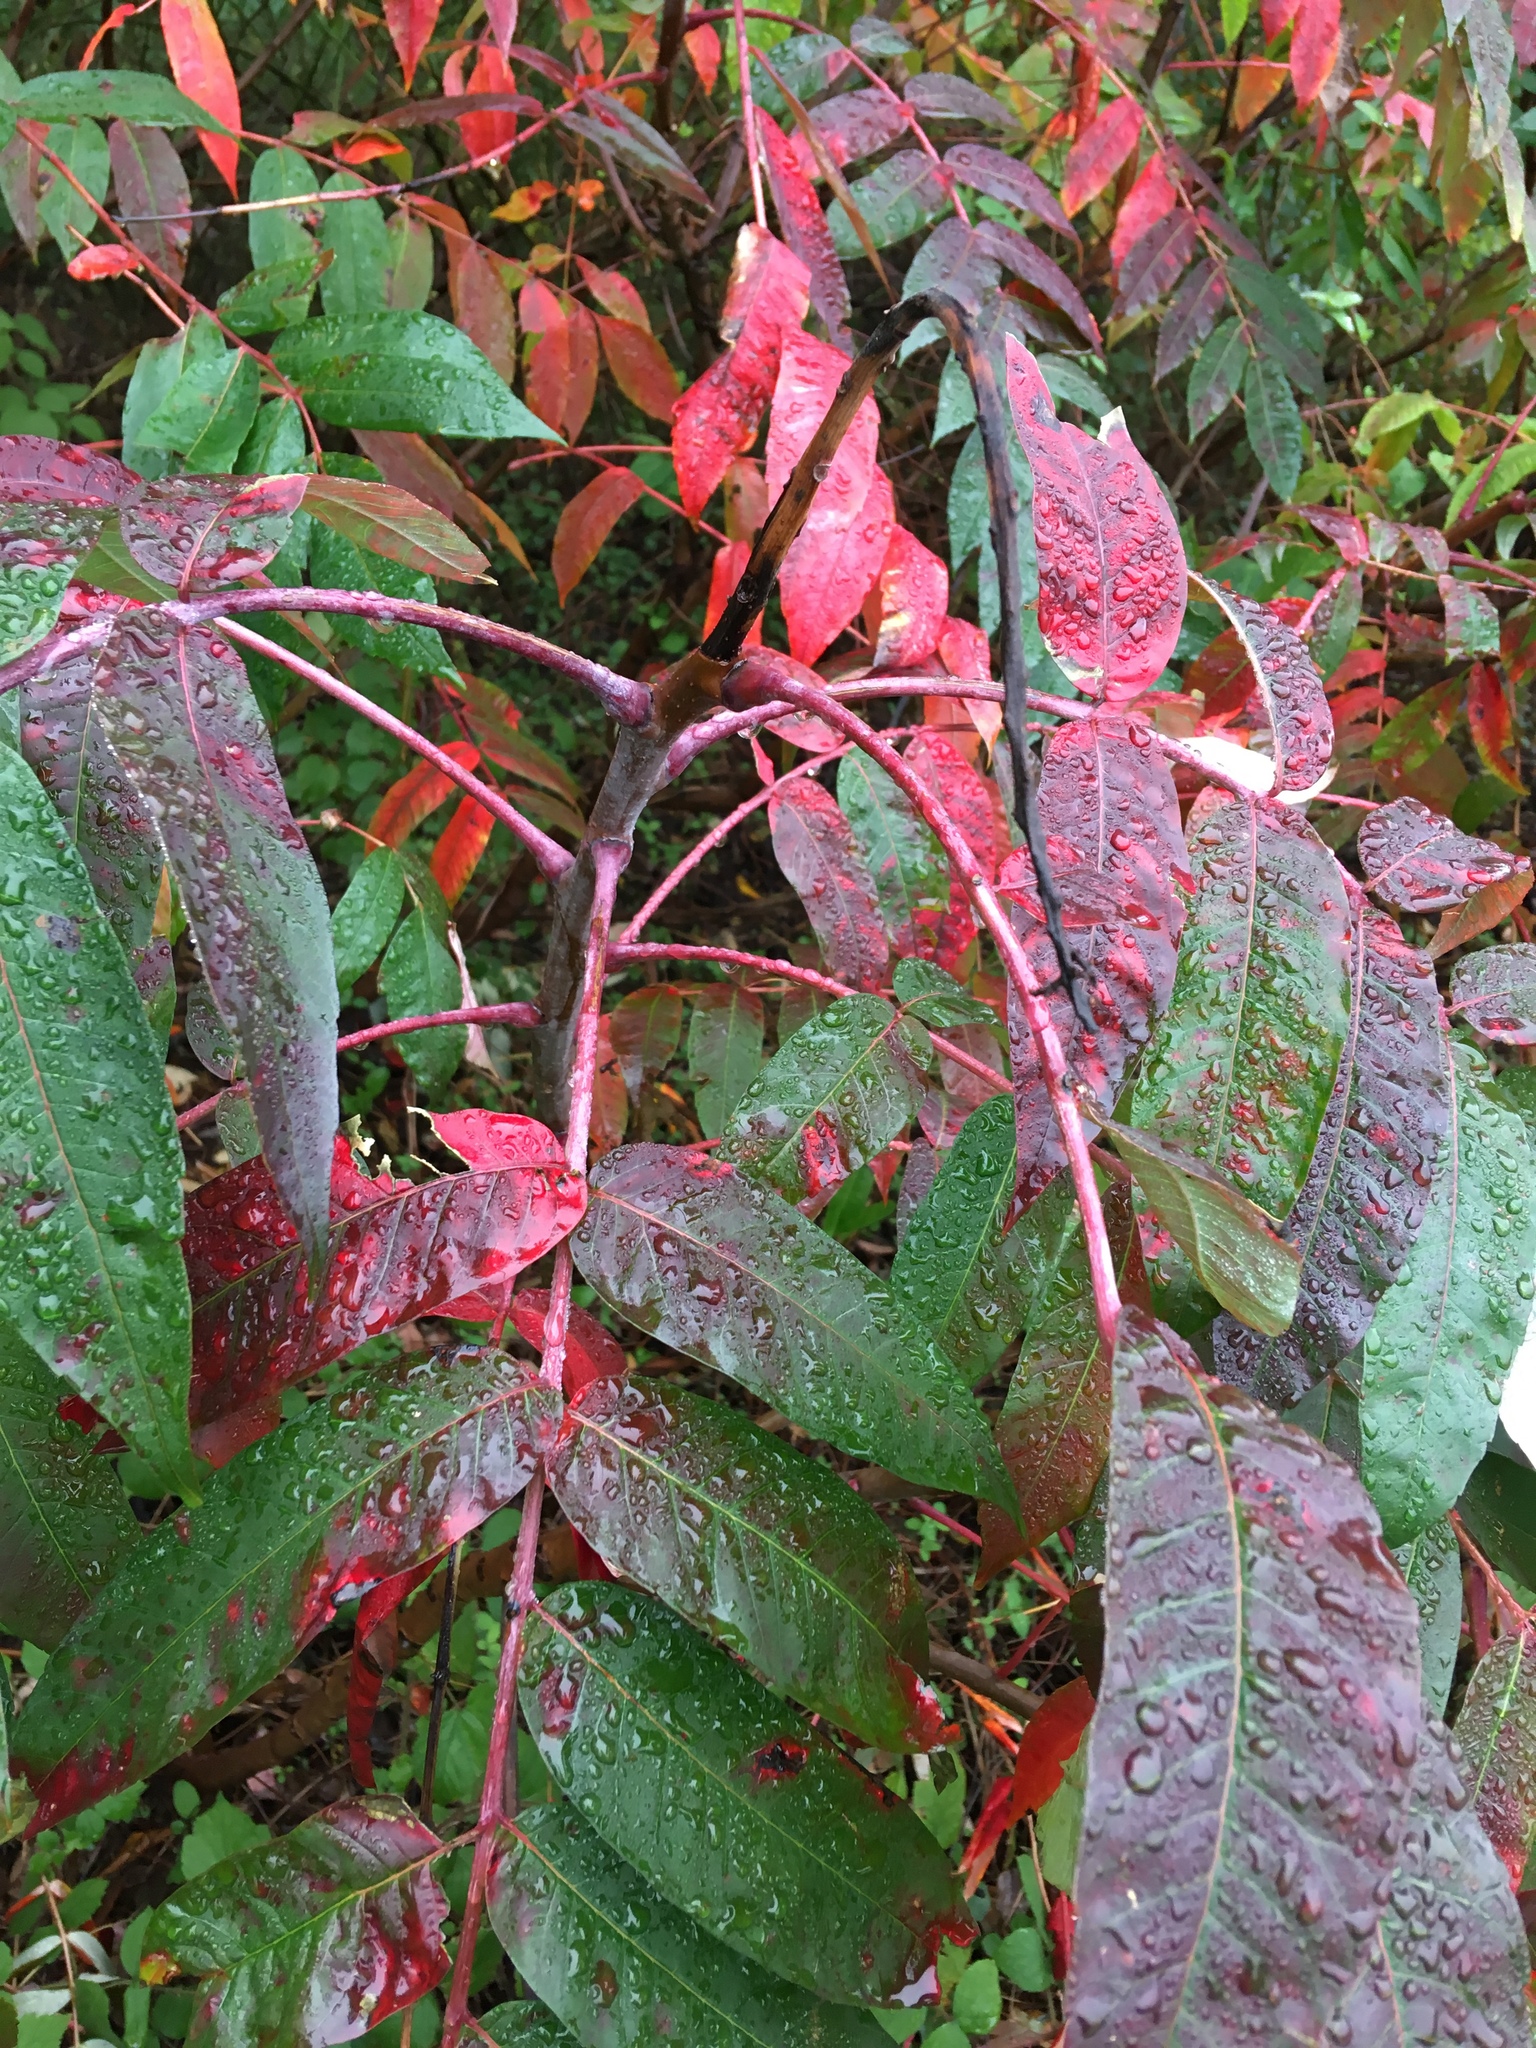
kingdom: Plantae
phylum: Tracheophyta
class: Magnoliopsida
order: Sapindales
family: Anacardiaceae
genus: Rhus
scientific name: Rhus glabra
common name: Scarlet sumac
